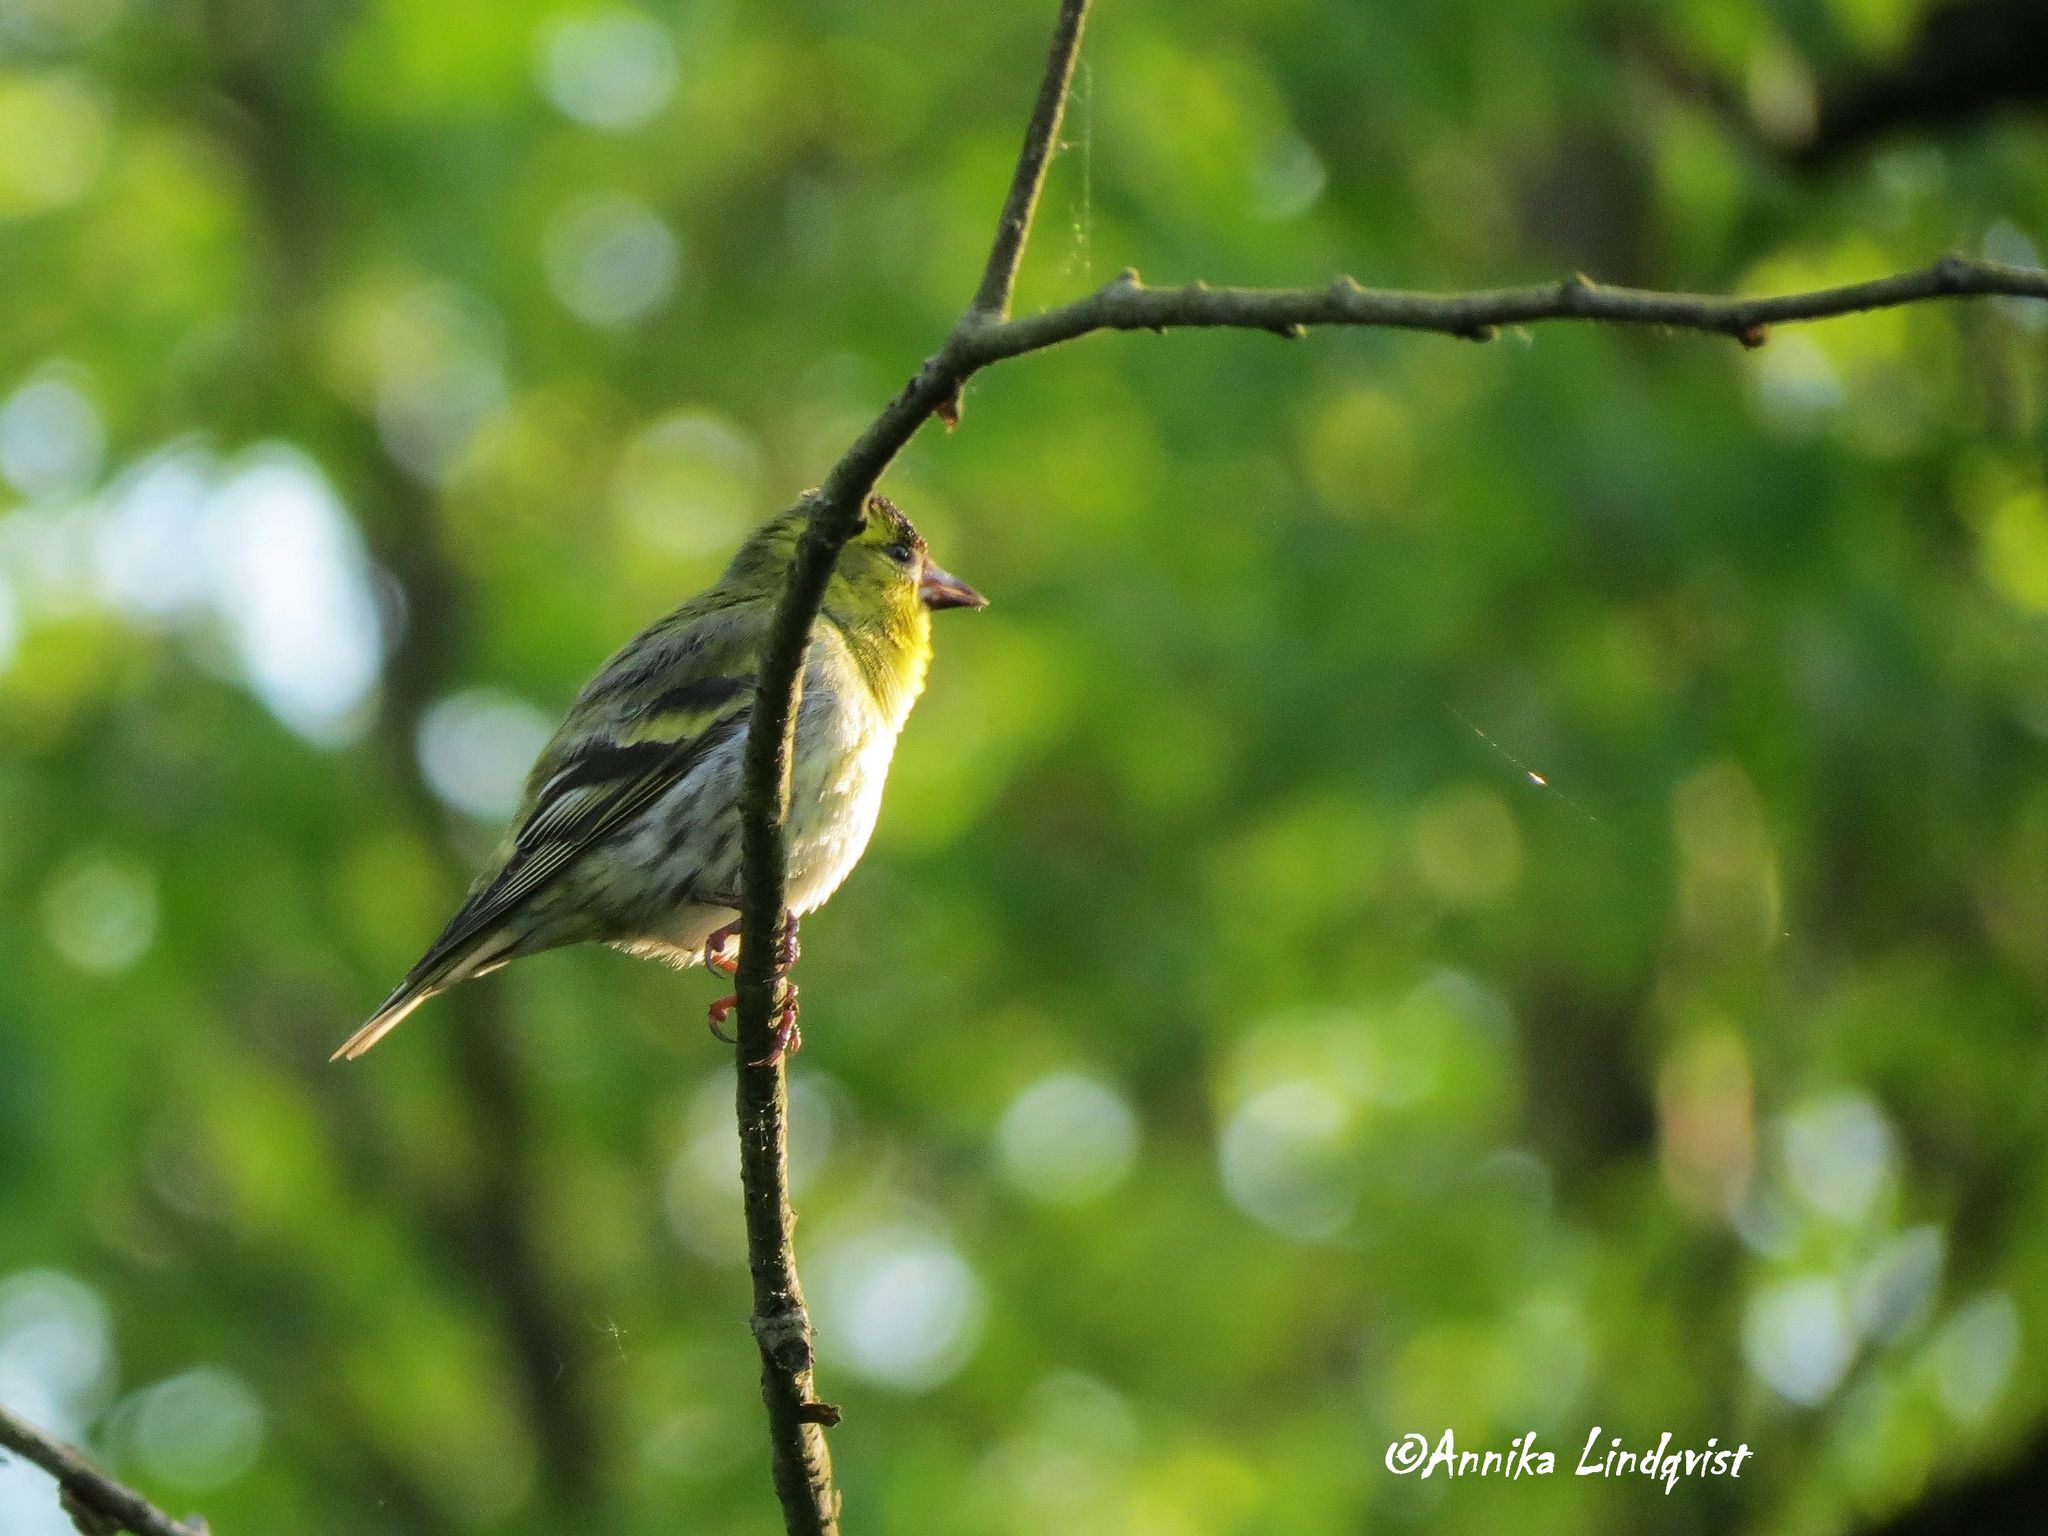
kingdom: Animalia
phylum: Chordata
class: Aves
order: Passeriformes
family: Fringillidae
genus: Spinus
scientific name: Spinus spinus
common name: Eurasian siskin
